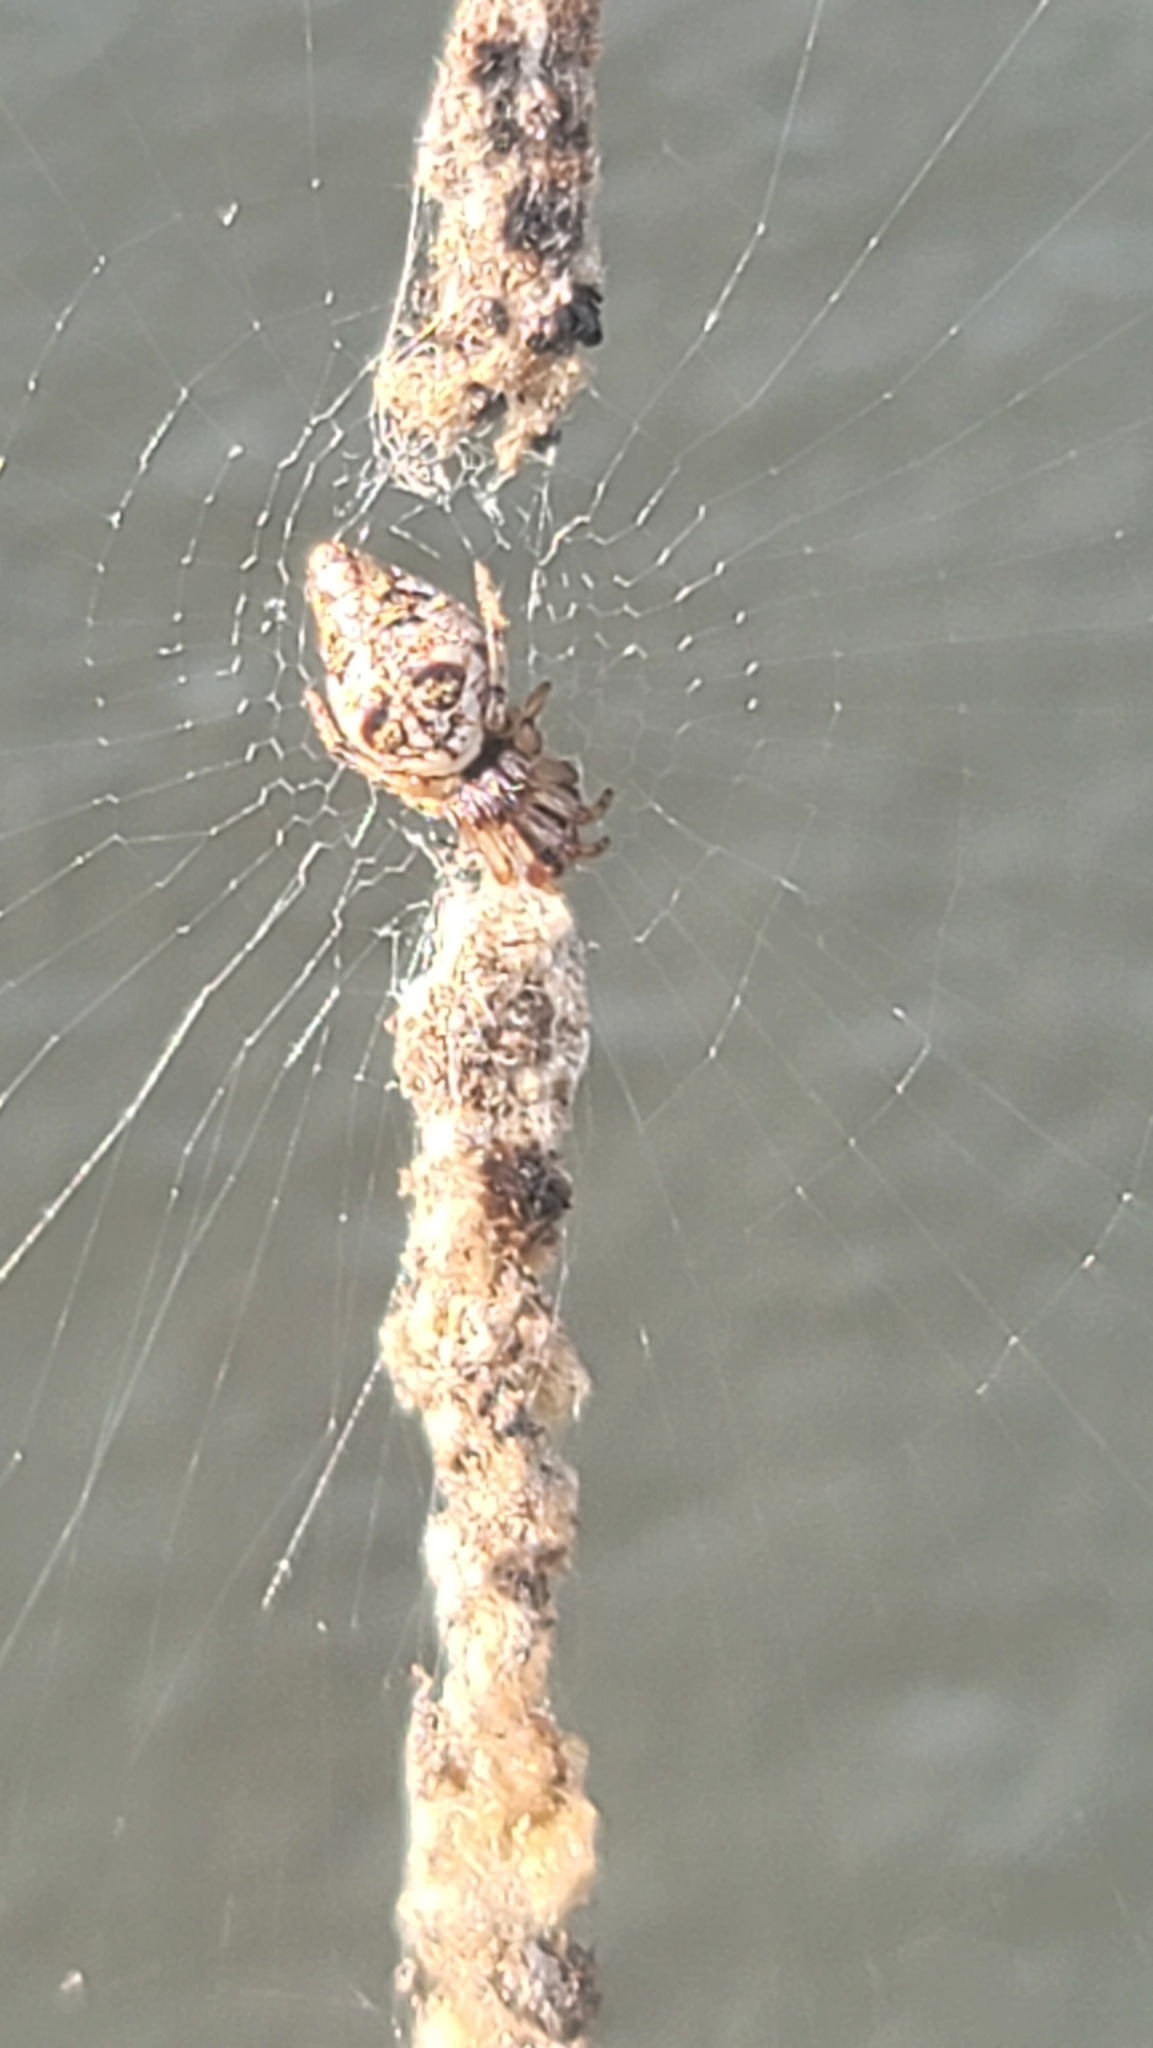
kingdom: Animalia
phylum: Arthropoda
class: Arachnida
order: Araneae
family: Araneidae
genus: Cyclosa
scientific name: Cyclosa turbinata
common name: Orb weavers
